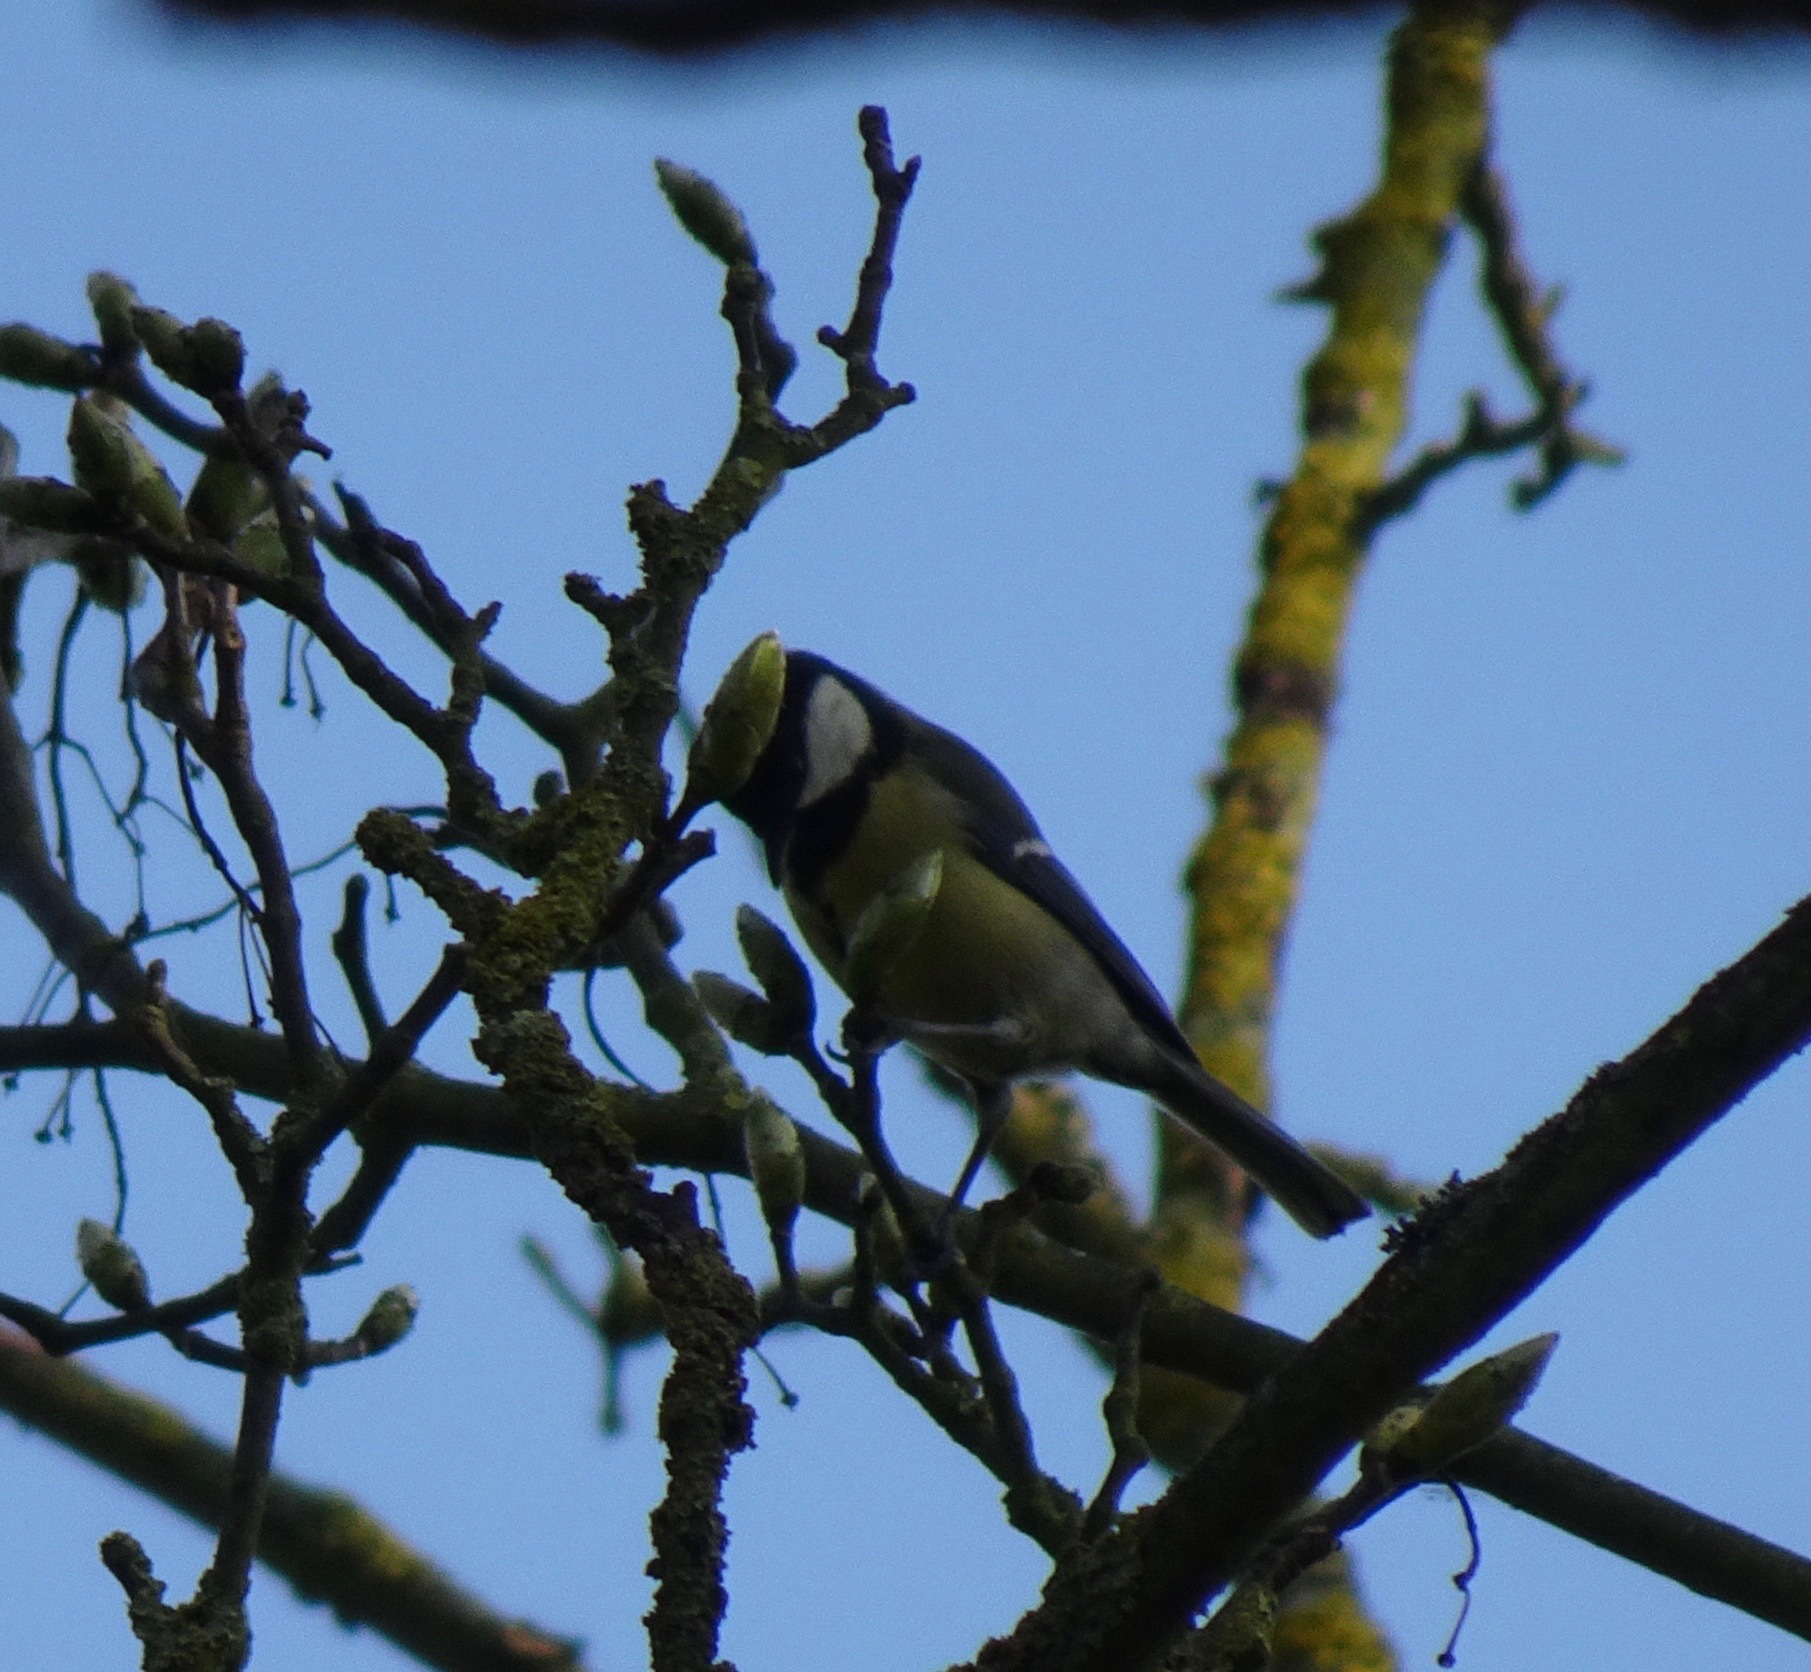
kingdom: Animalia
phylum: Chordata
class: Aves
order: Passeriformes
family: Paridae
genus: Parus
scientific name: Parus major
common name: Great tit
